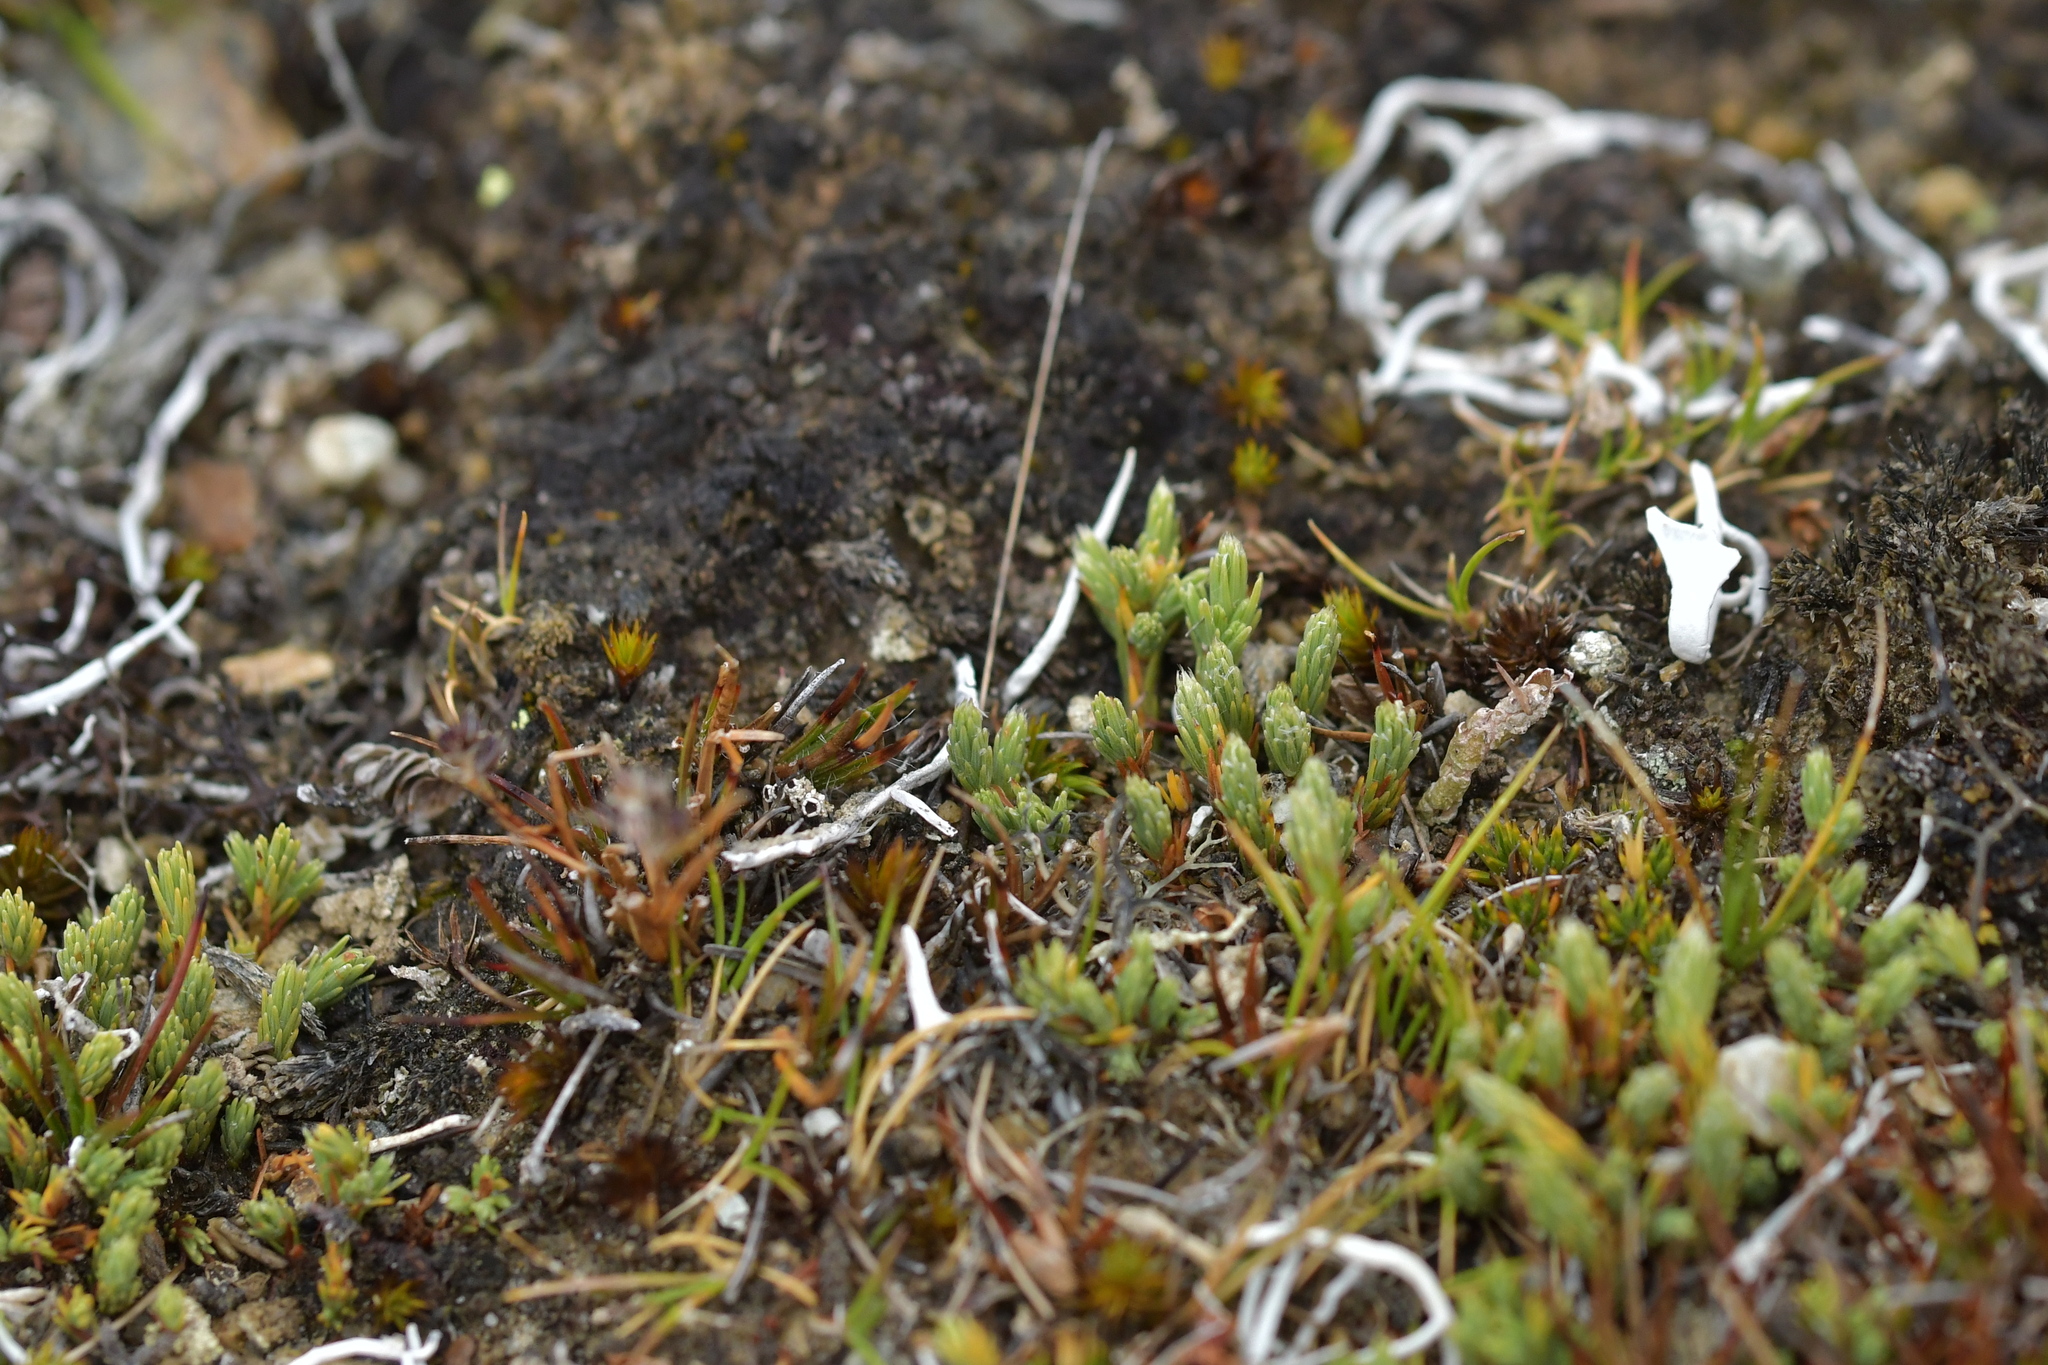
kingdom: Plantae
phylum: Tracheophyta
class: Magnoliopsida
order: Malvales
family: Thymelaeaceae
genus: Kelleria
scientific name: Kelleria dieffenbachii
